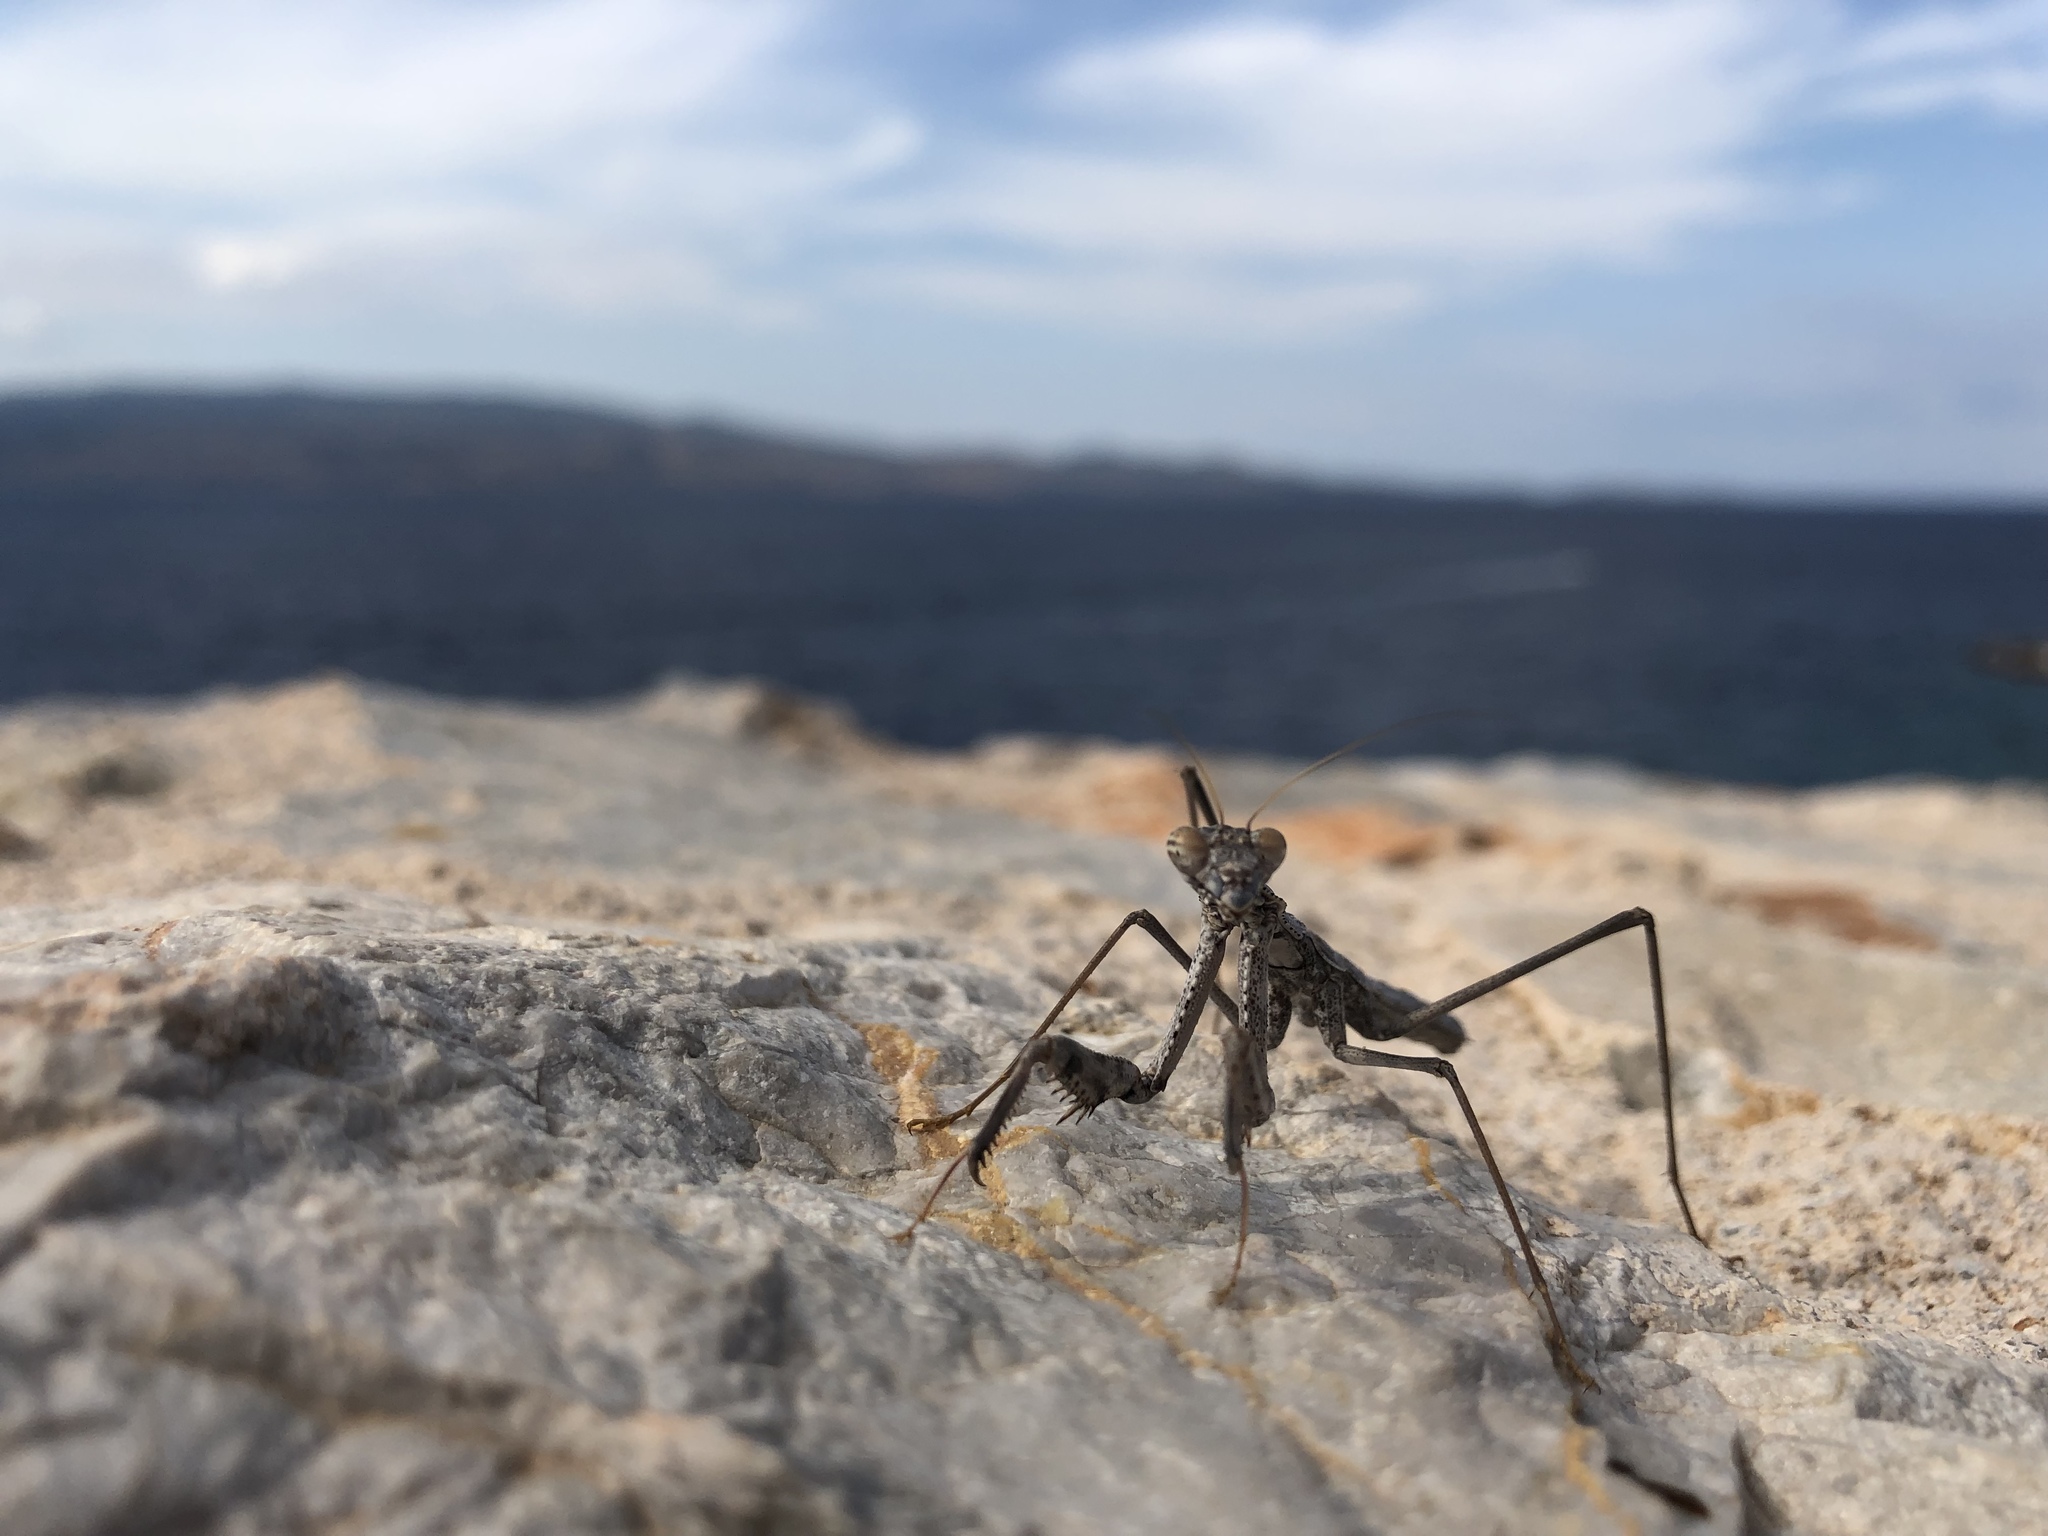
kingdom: Animalia
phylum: Arthropoda
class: Insecta
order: Mantodea
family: Rivetinidae
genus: Rivetina
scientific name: Rivetina balcanica
